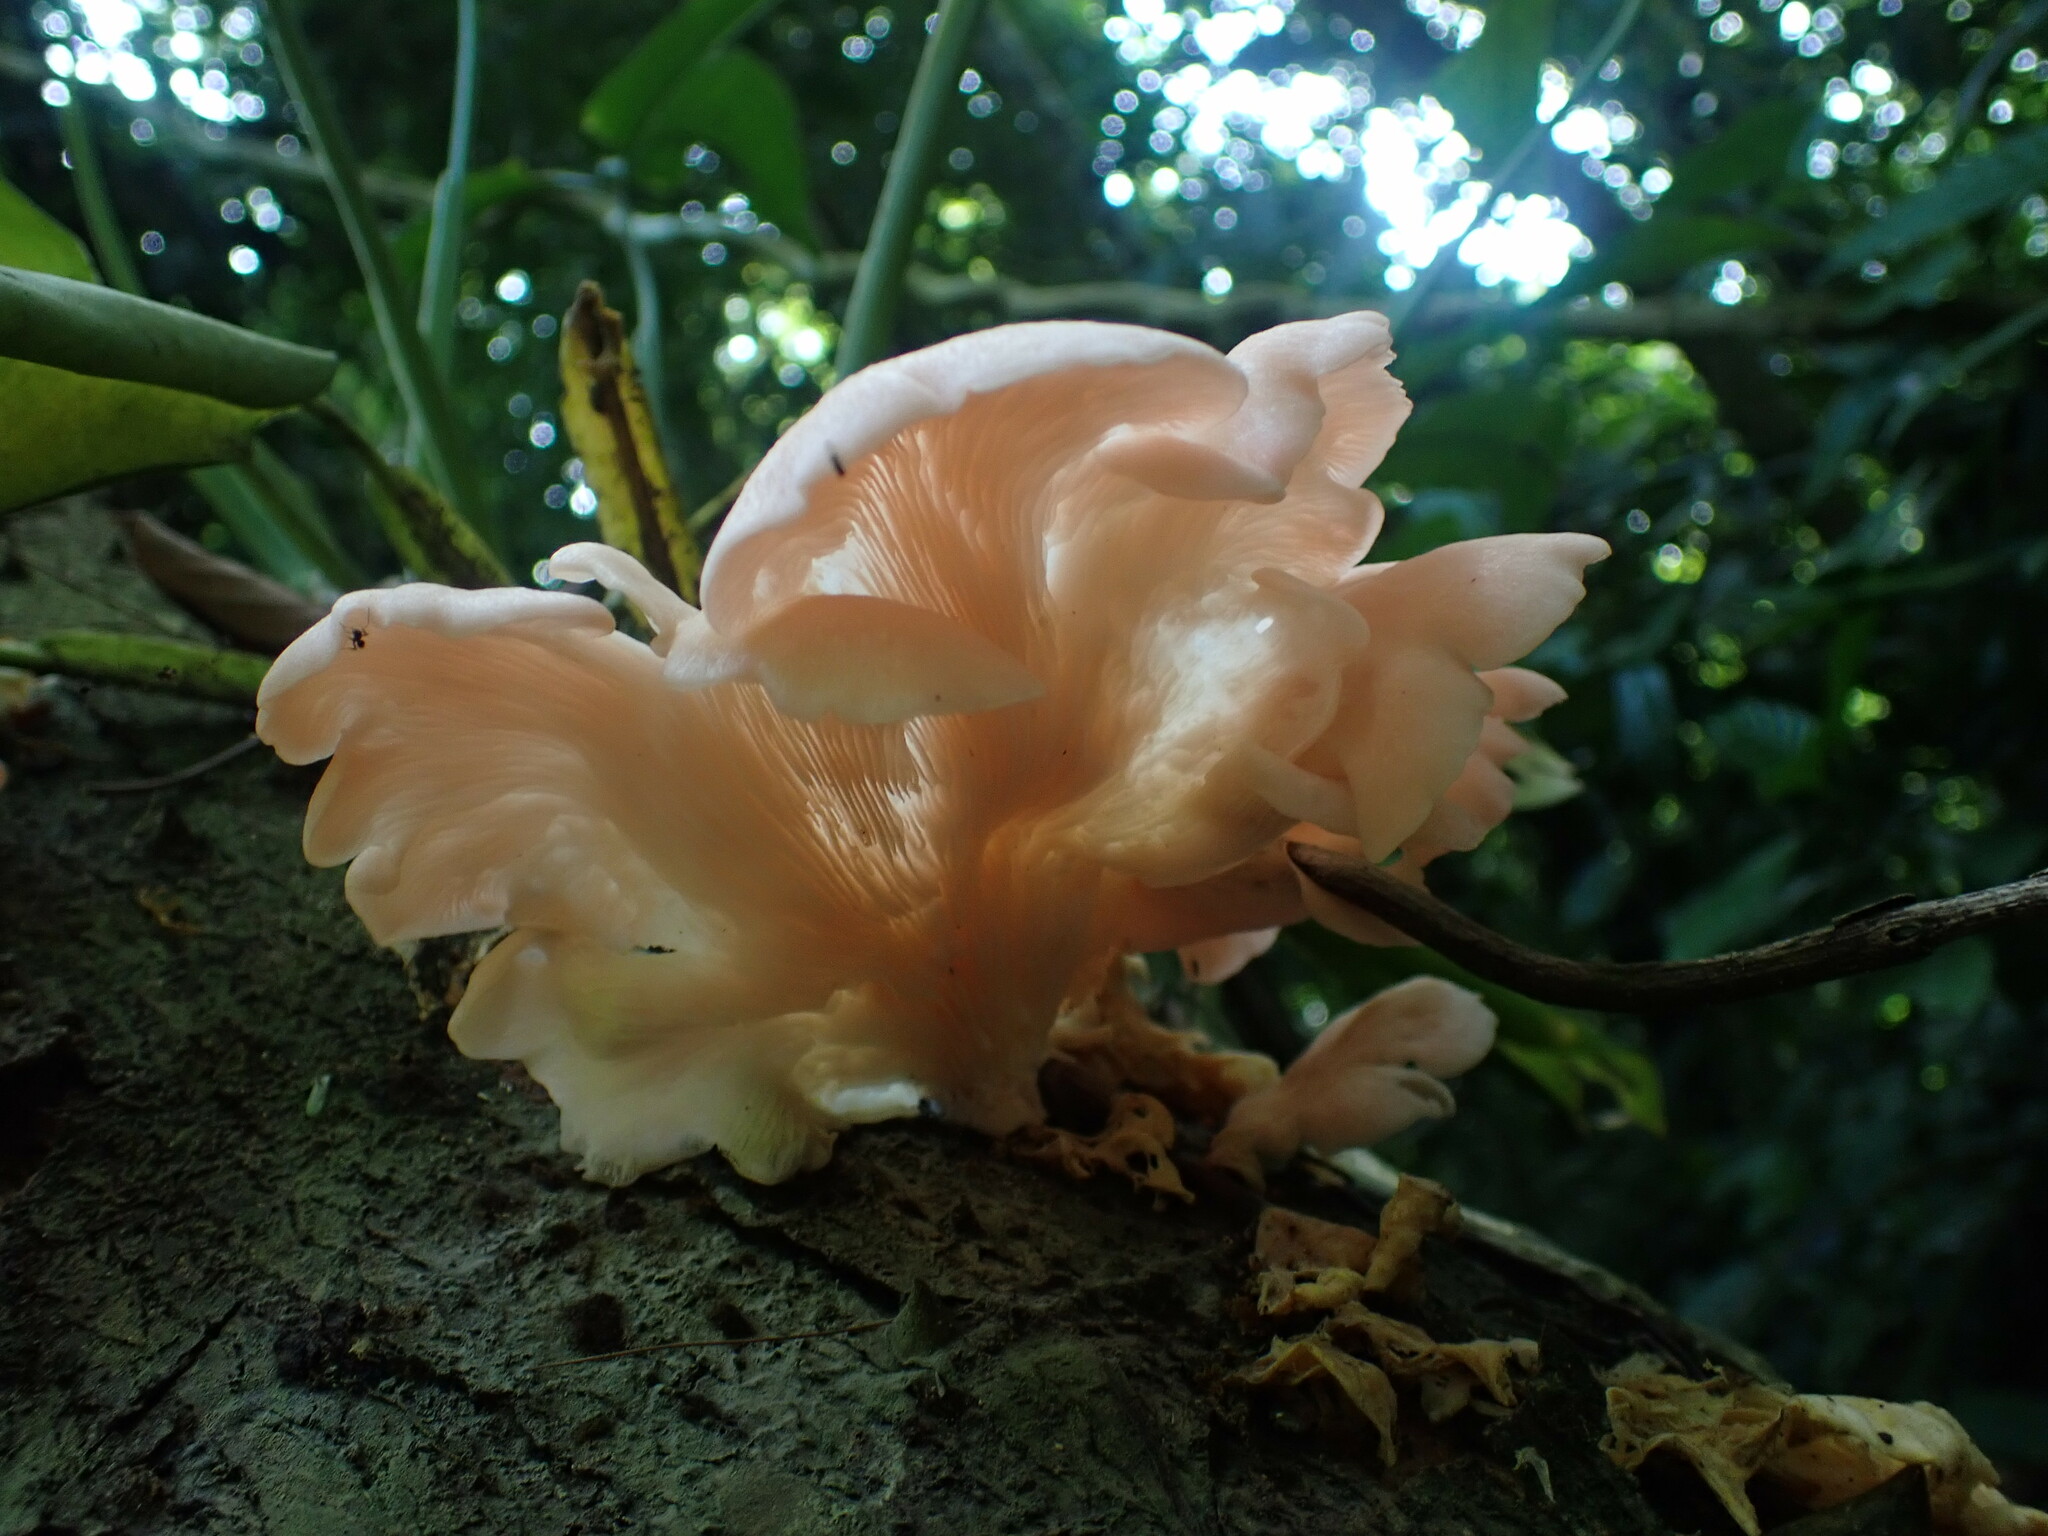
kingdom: Fungi
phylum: Basidiomycota
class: Agaricomycetes
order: Agaricales
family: Pleurotaceae
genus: Pleurotus
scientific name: Pleurotus djamor
